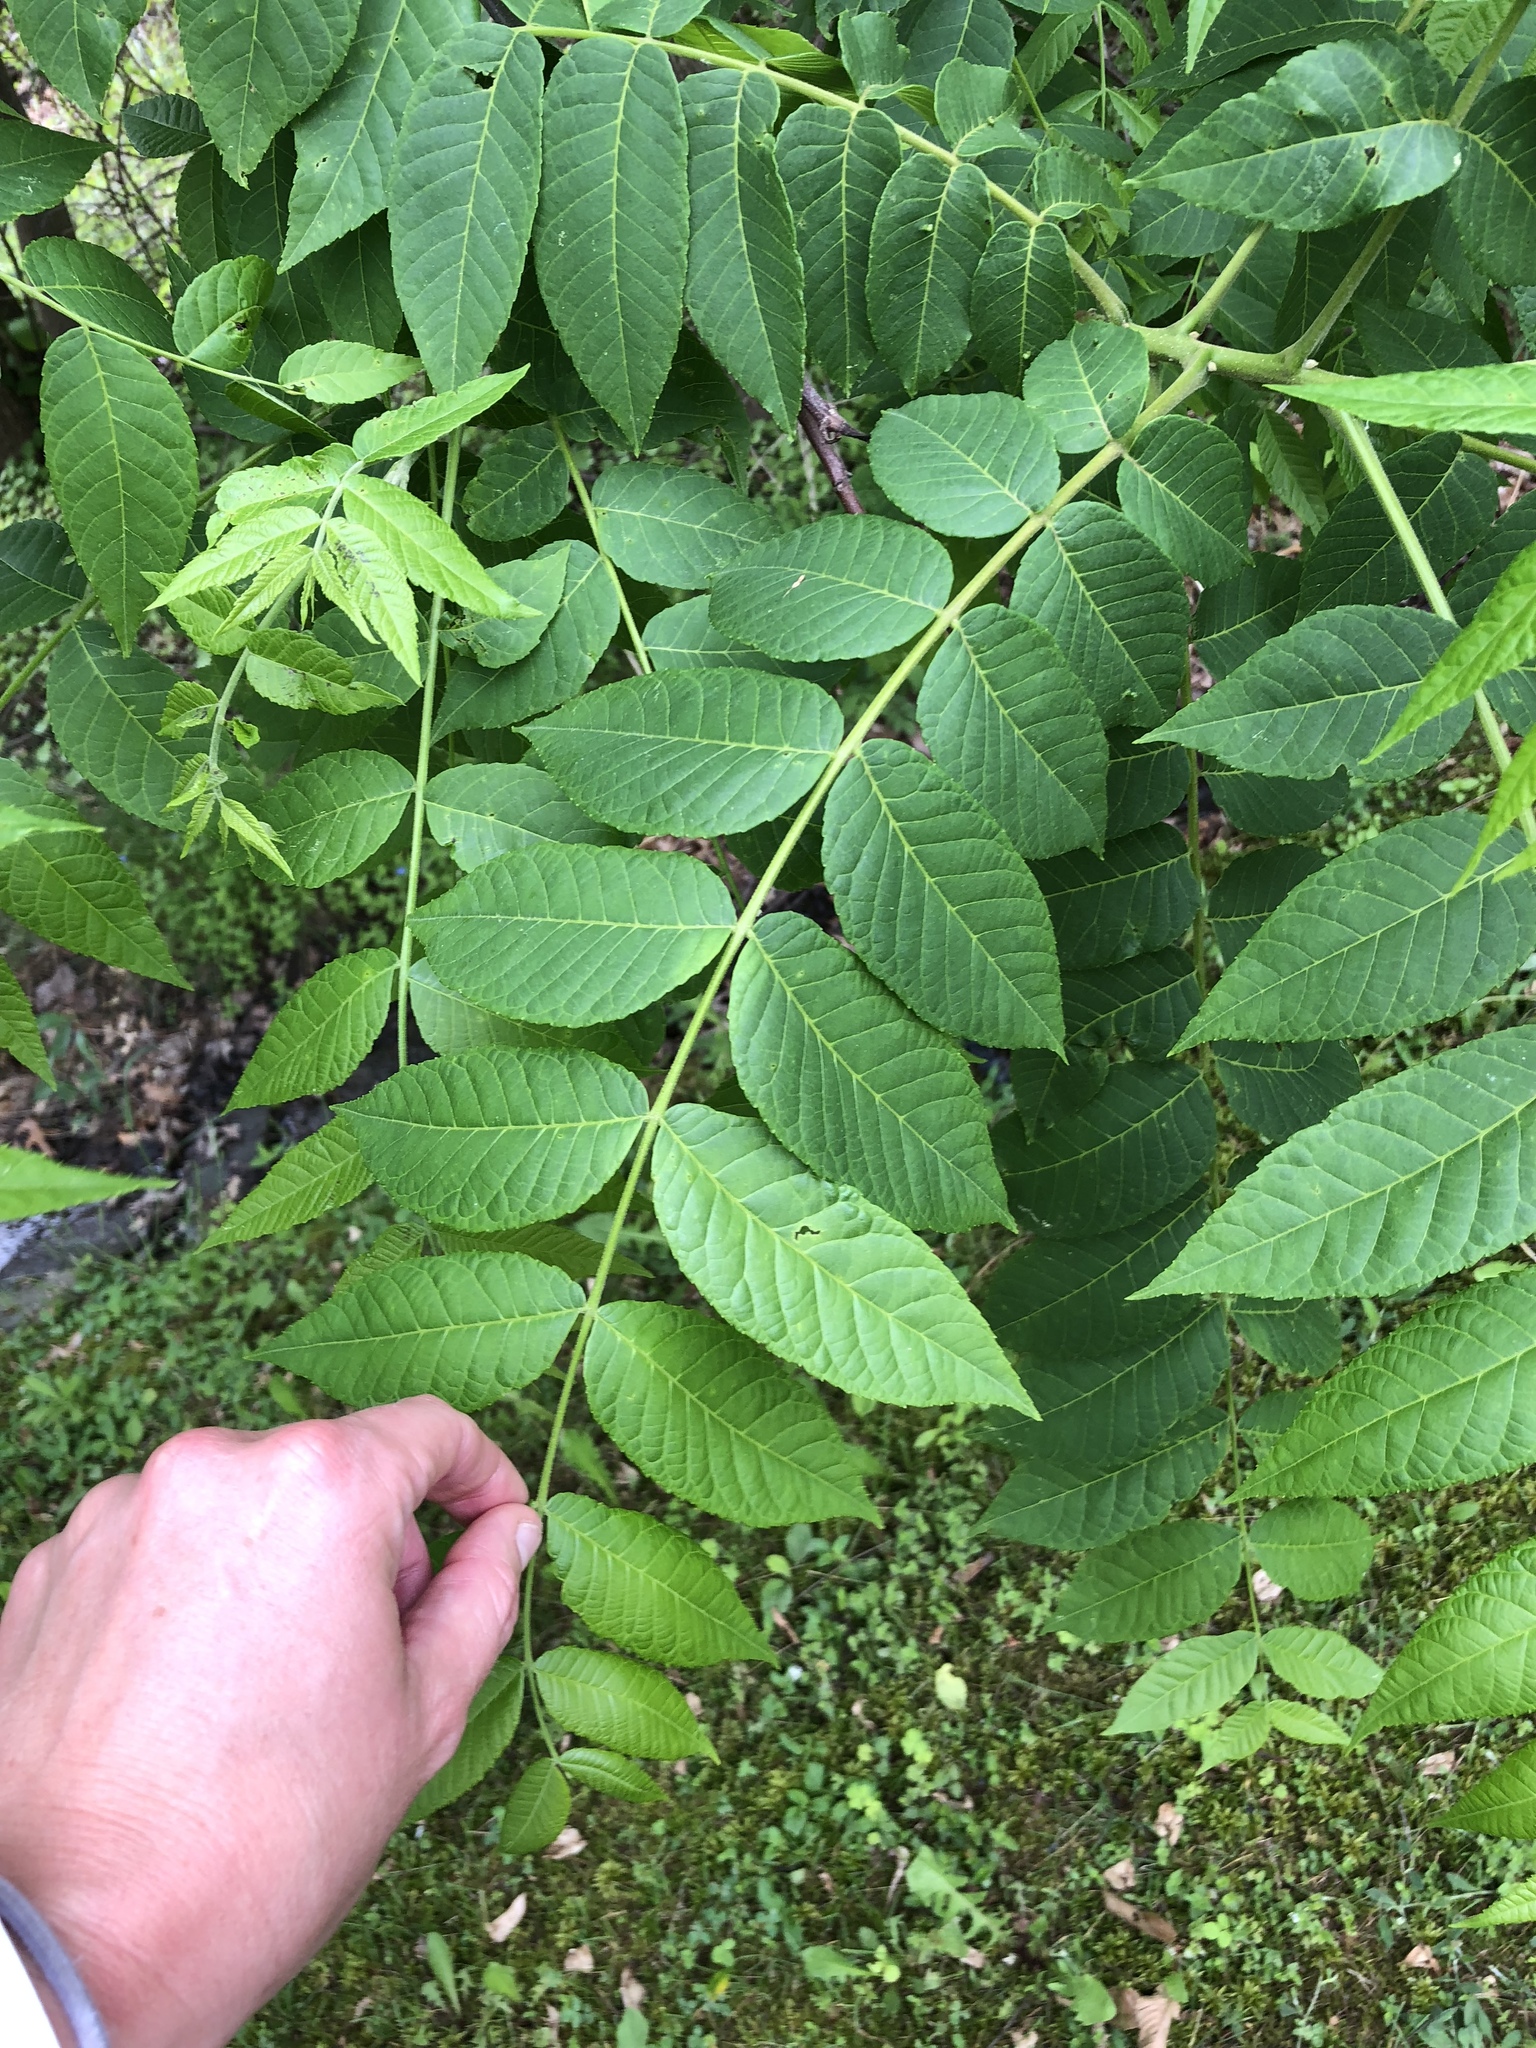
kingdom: Plantae
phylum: Tracheophyta
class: Magnoliopsida
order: Fagales
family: Juglandaceae
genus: Juglans
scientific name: Juglans nigra
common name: Black walnut
